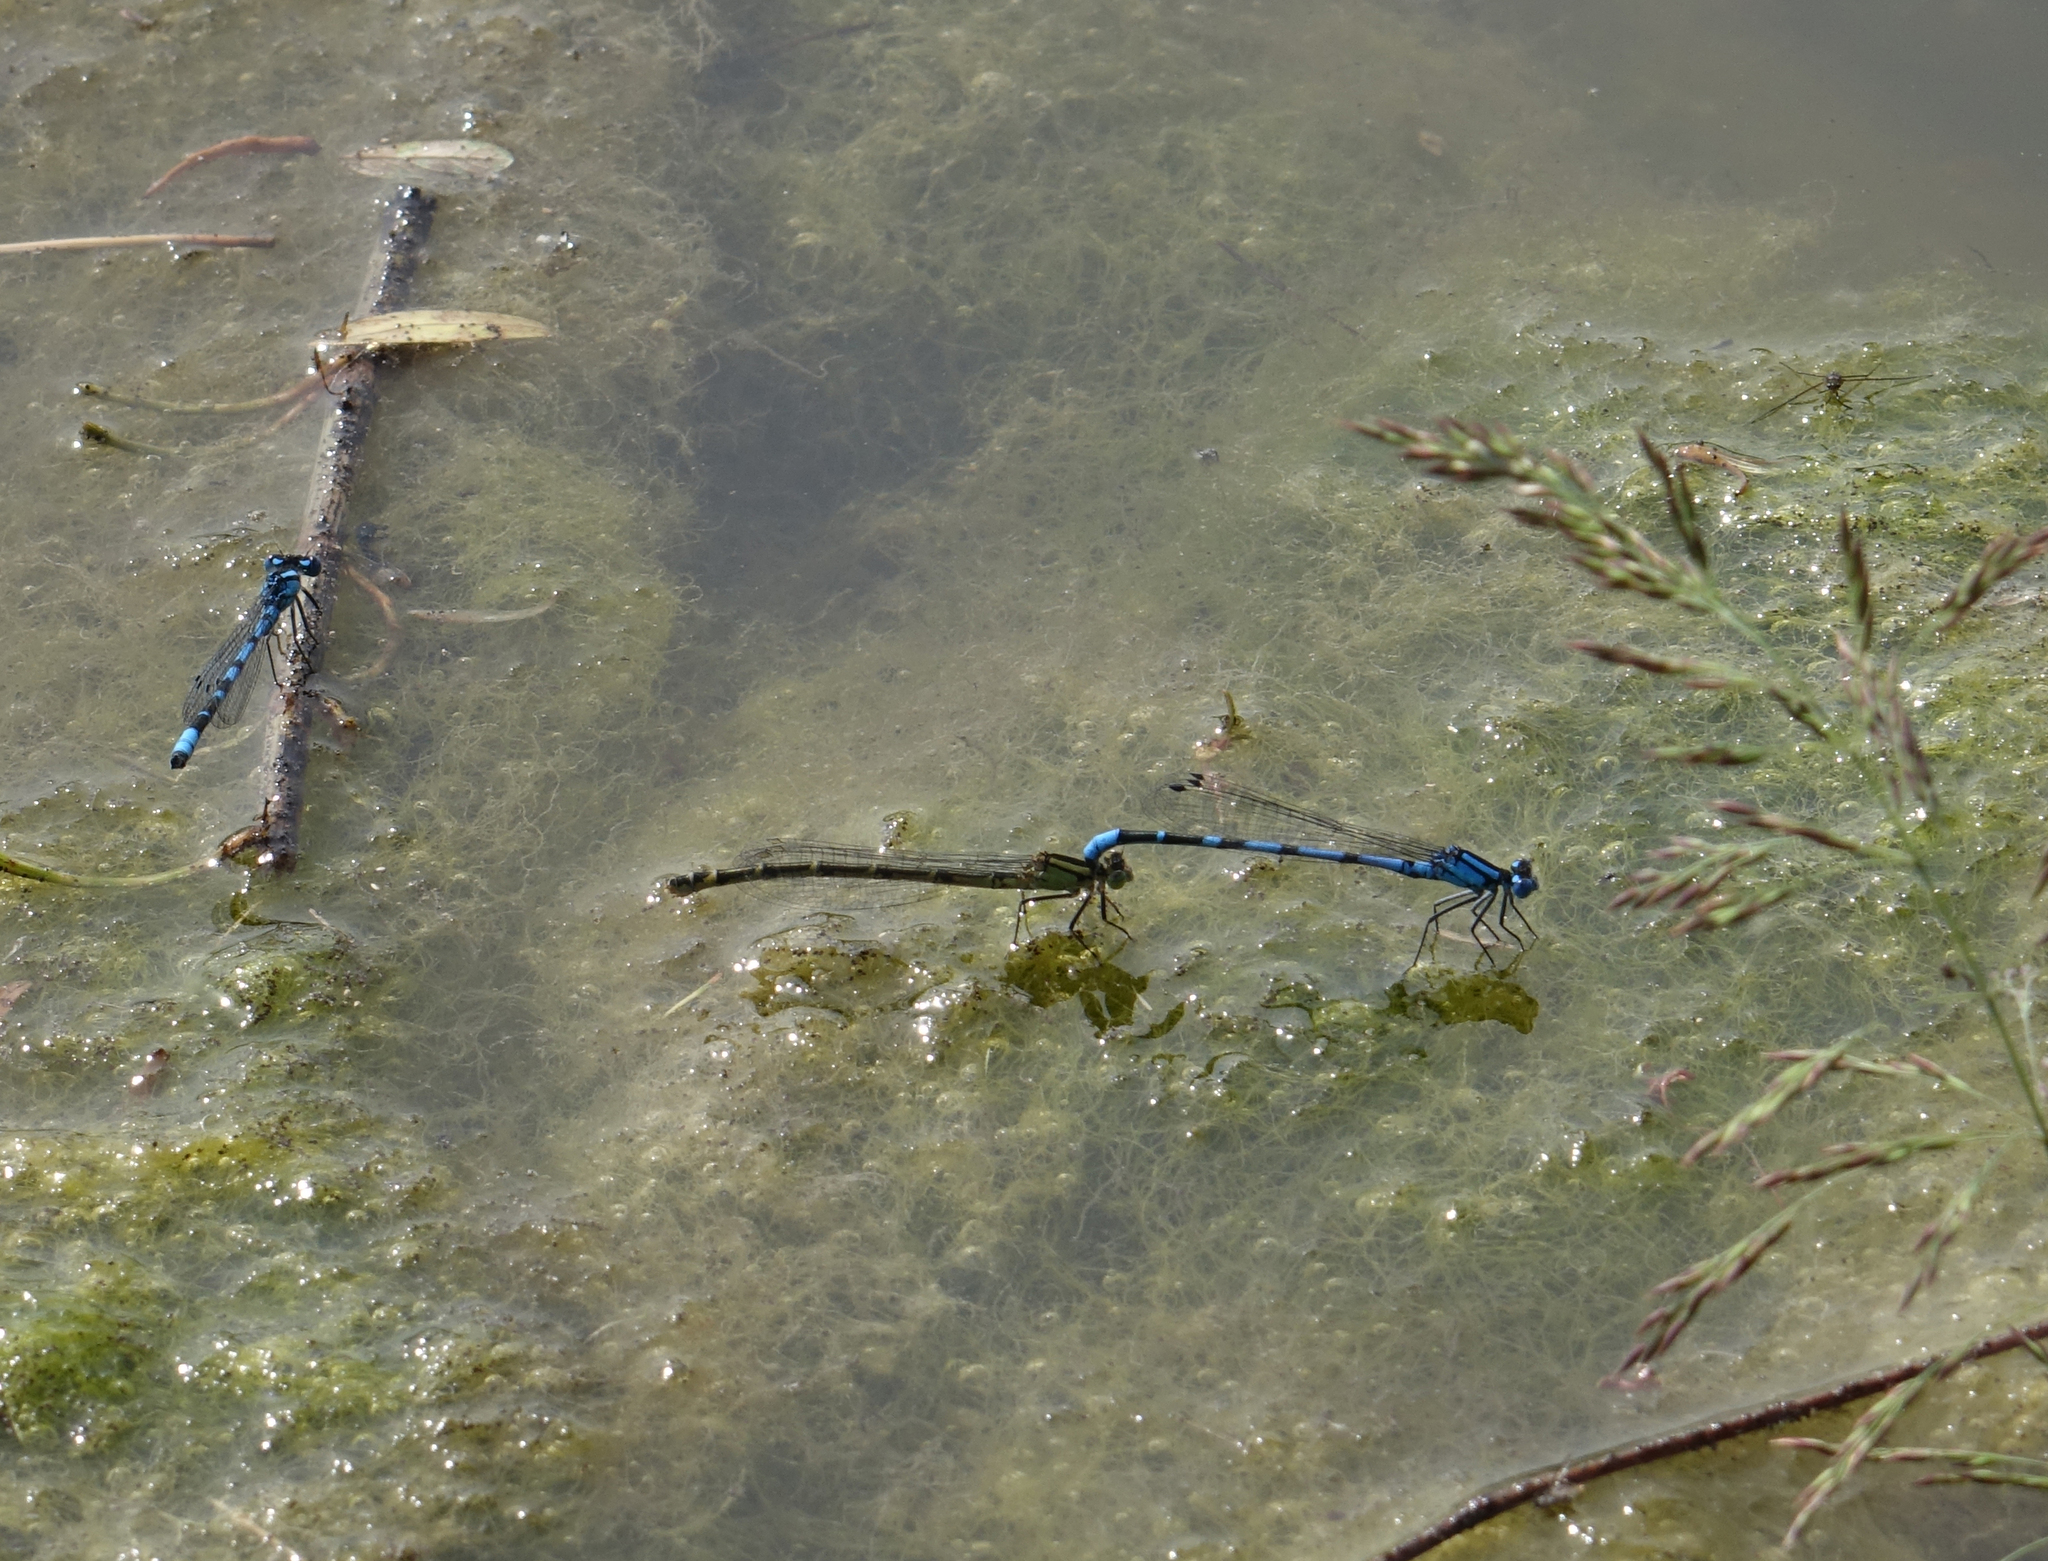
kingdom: Animalia
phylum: Arthropoda
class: Insecta
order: Odonata
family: Coenagrionidae
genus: Enallagma
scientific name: Enallagma cyathigerum
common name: Common blue damselfly
